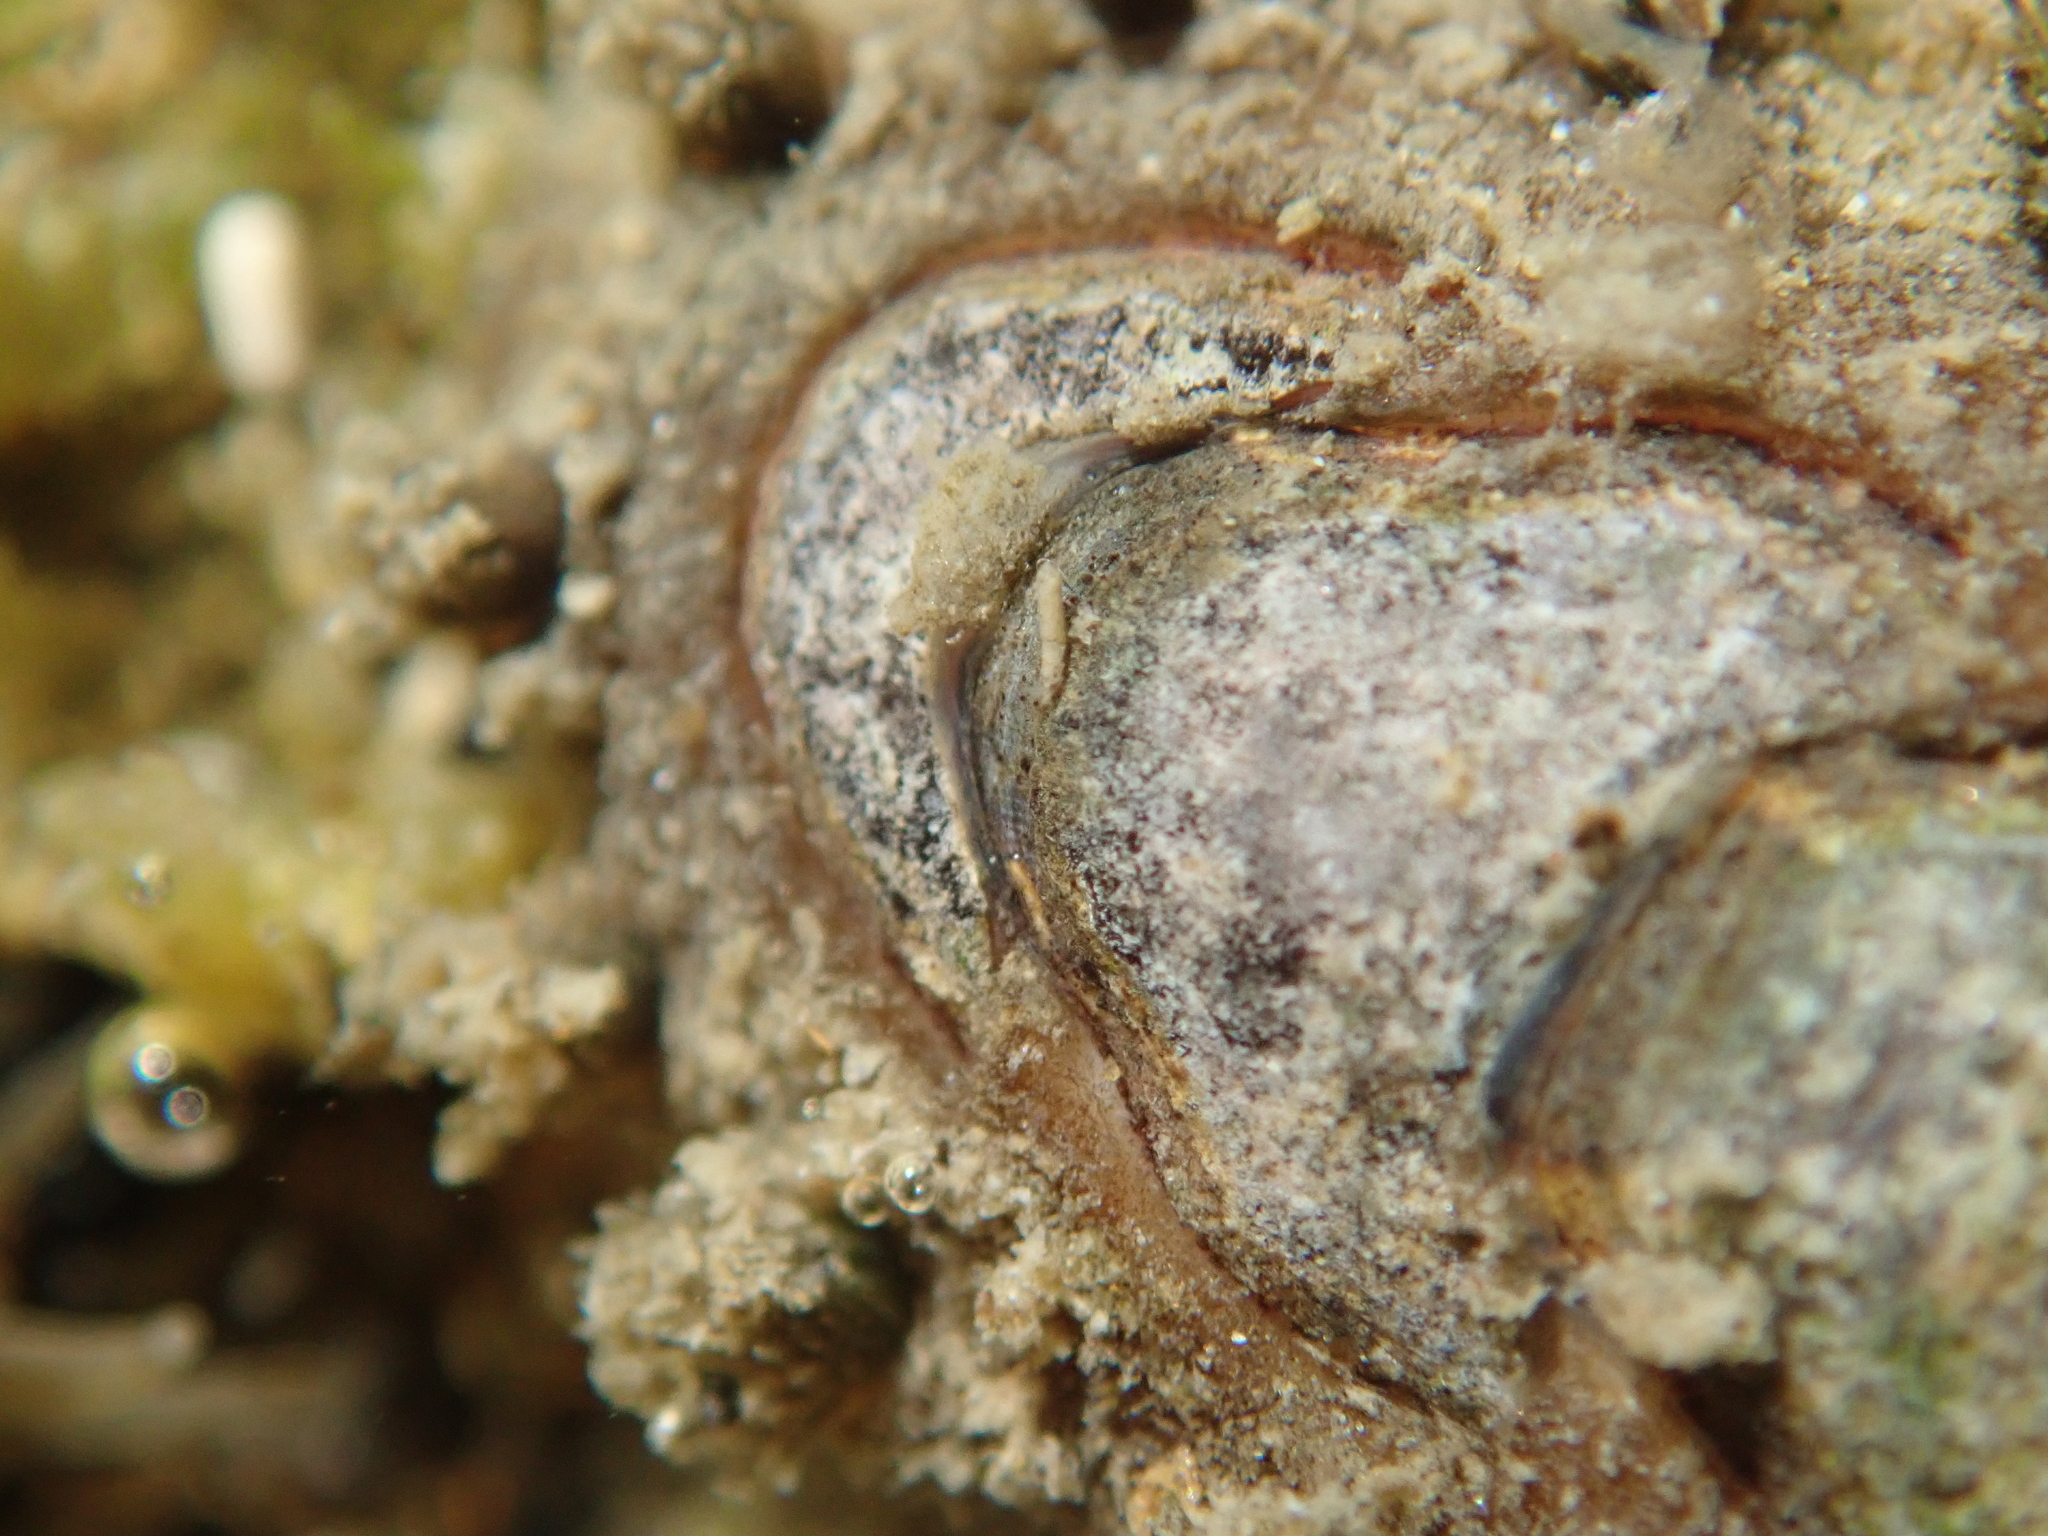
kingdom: Animalia
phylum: Mollusca
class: Polyplacophora
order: Chitonida
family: Acanthochitonidae
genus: Acanthochitona
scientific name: Acanthochitona zelandica
